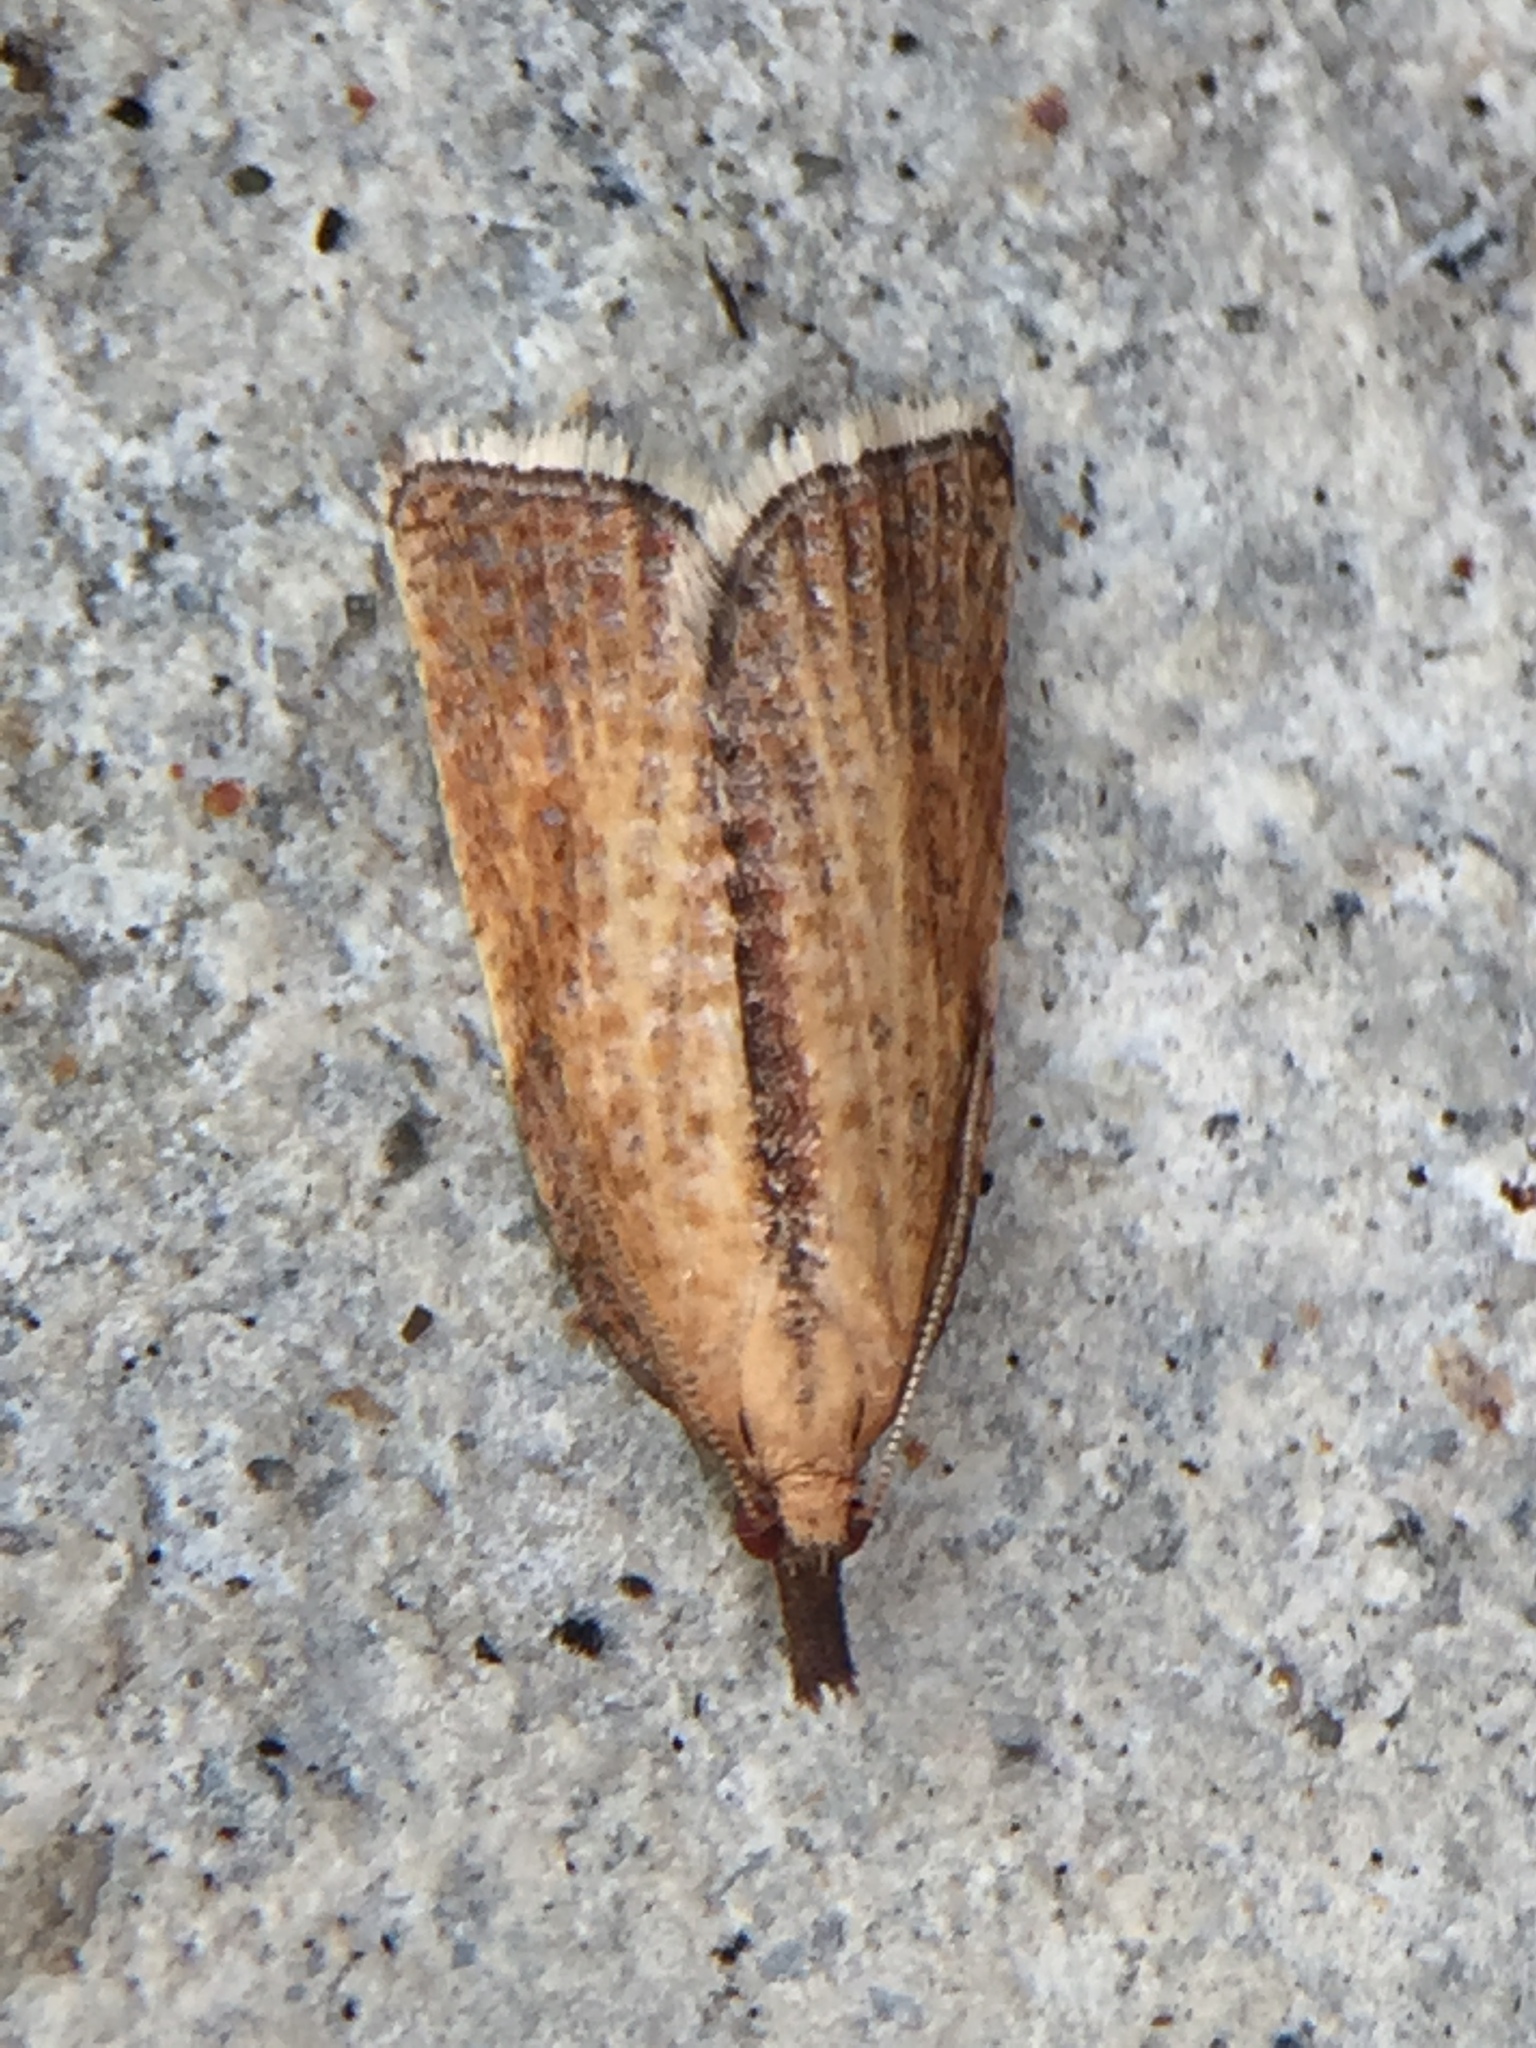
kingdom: Animalia
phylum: Arthropoda
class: Insecta
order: Lepidoptera
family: Tortricidae
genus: Catamacta
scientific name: Catamacta lotinana
